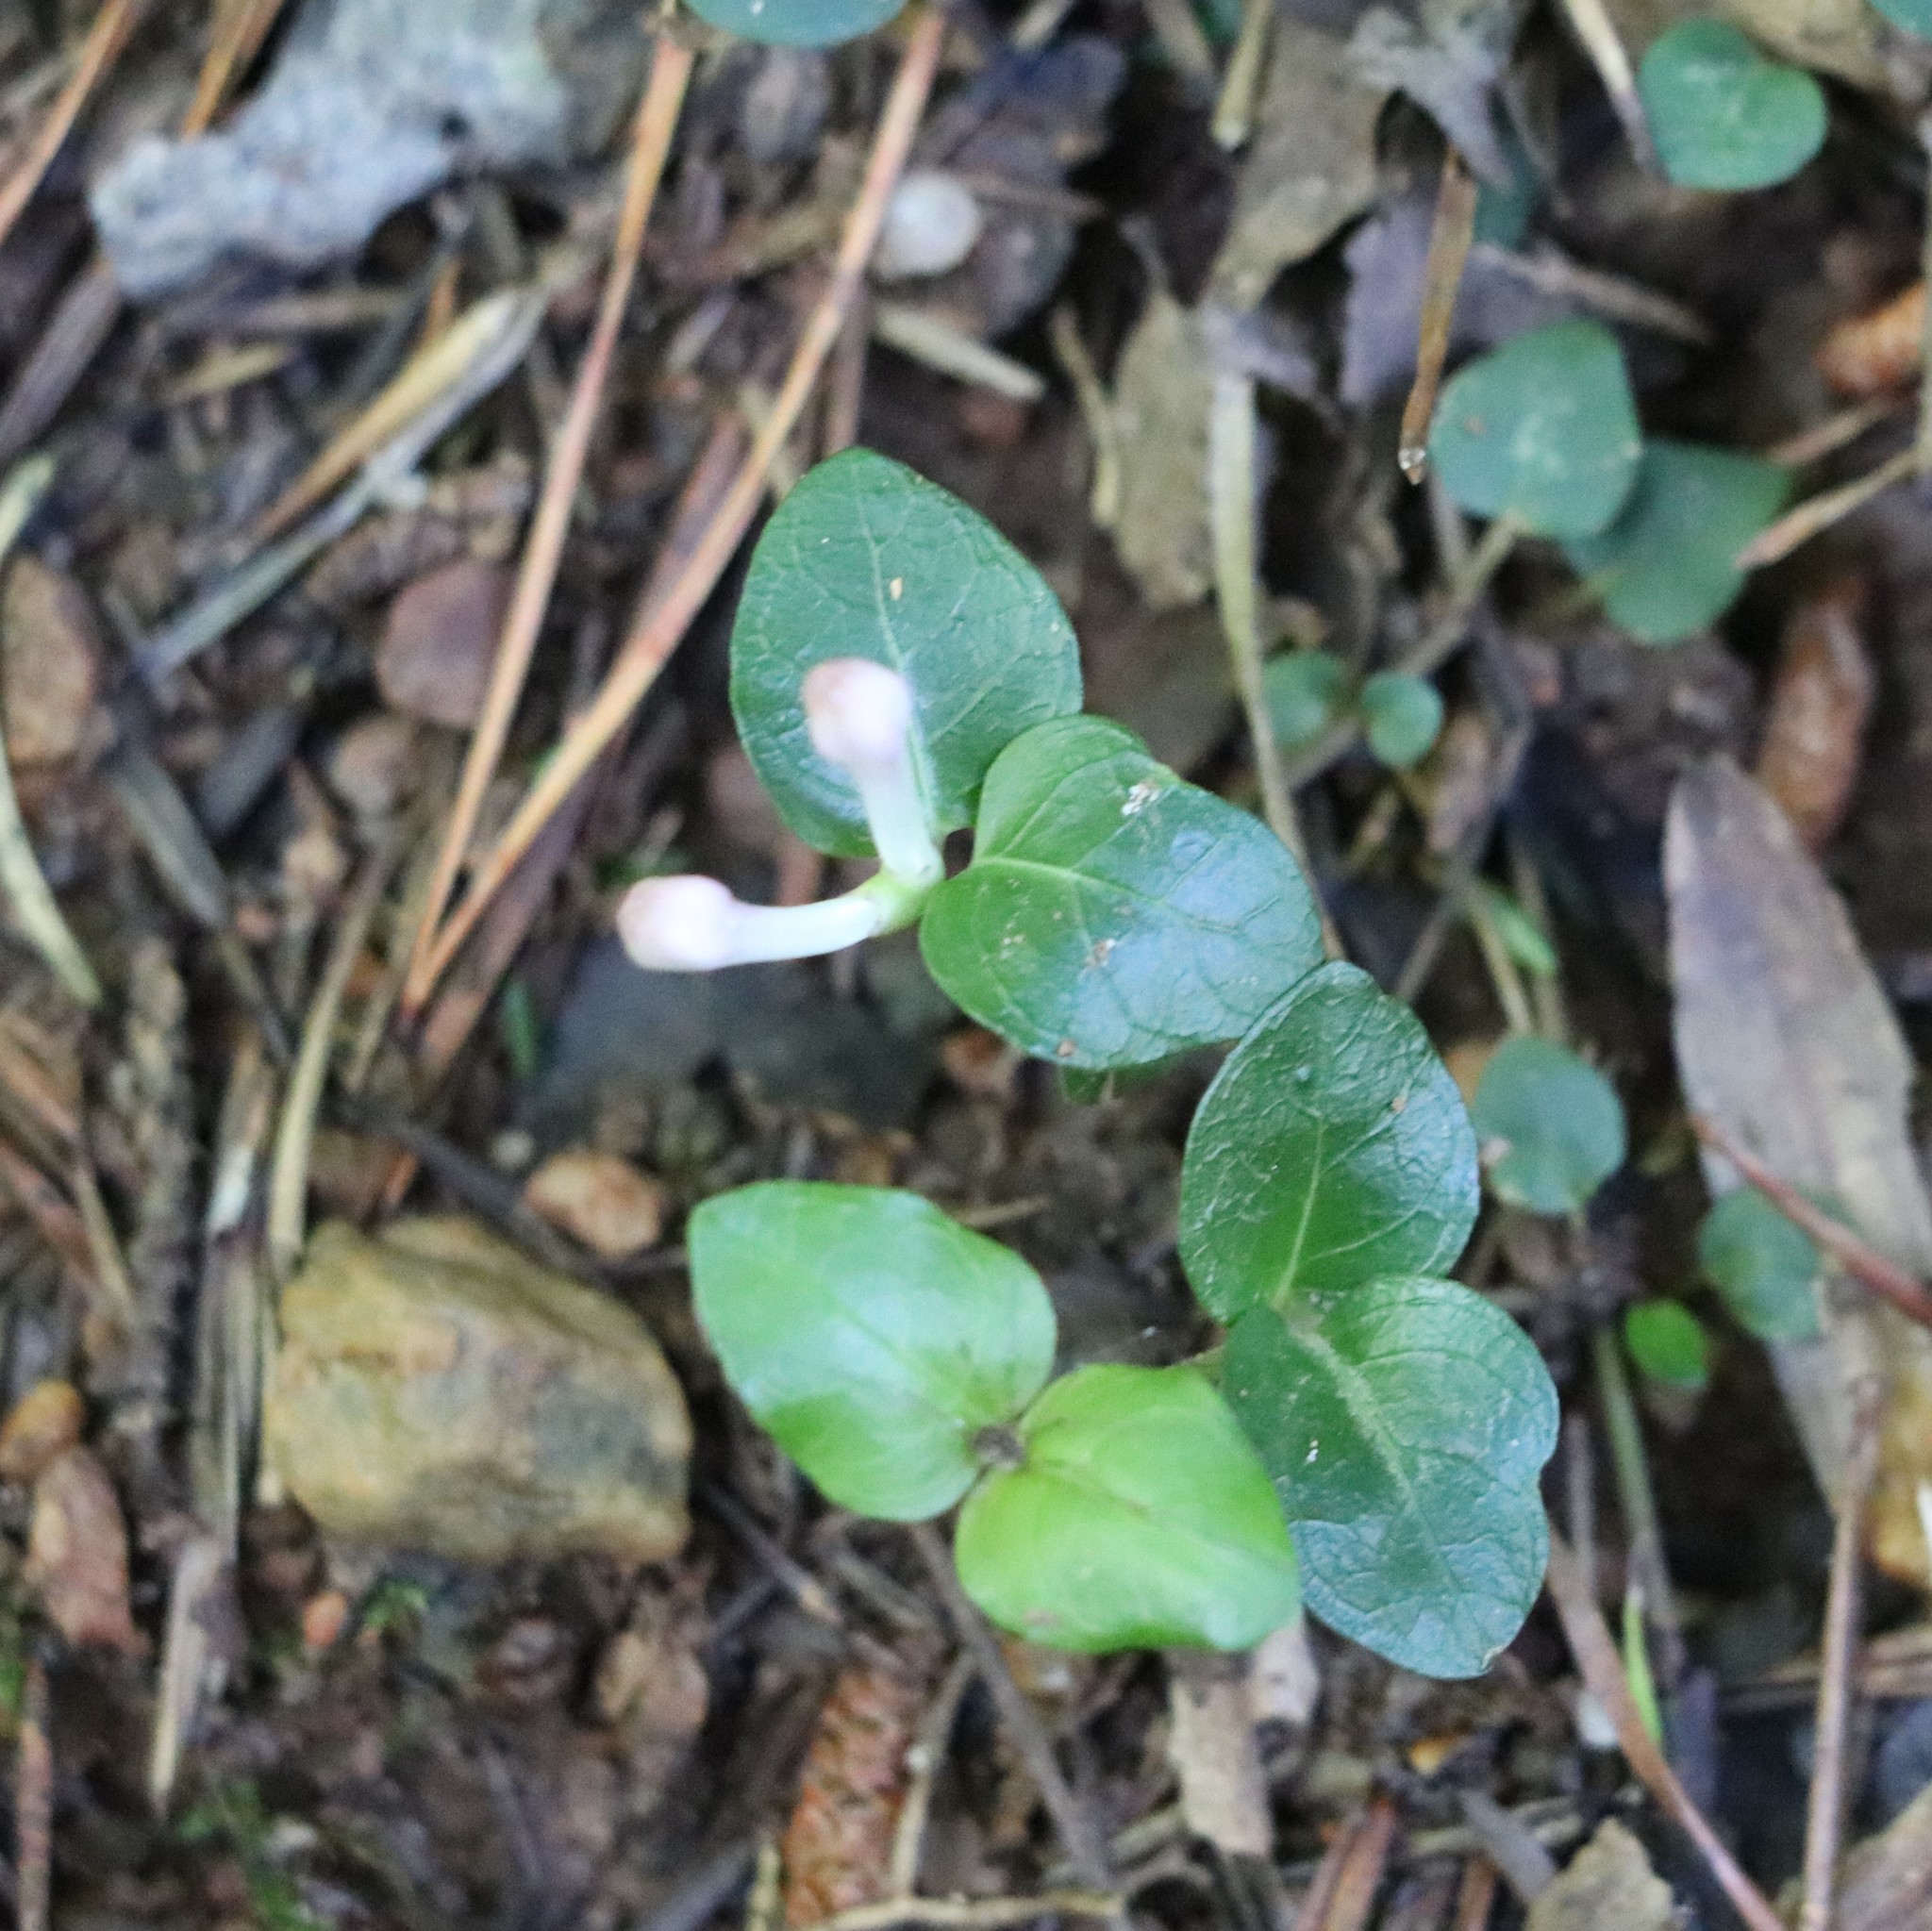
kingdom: Plantae
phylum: Tracheophyta
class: Magnoliopsida
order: Gentianales
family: Rubiaceae
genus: Mitchella
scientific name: Mitchella repens
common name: Partridge-berry
